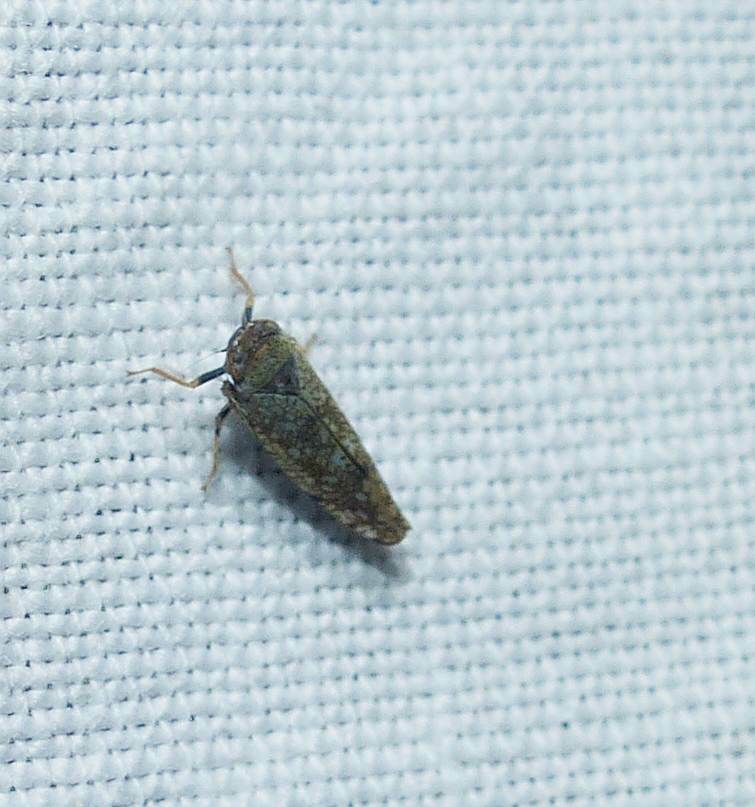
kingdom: Animalia
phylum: Arthropoda
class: Insecta
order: Hemiptera
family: Cicadellidae
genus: Orientus
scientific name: Orientus ishidae
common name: Japanese leafhopper
